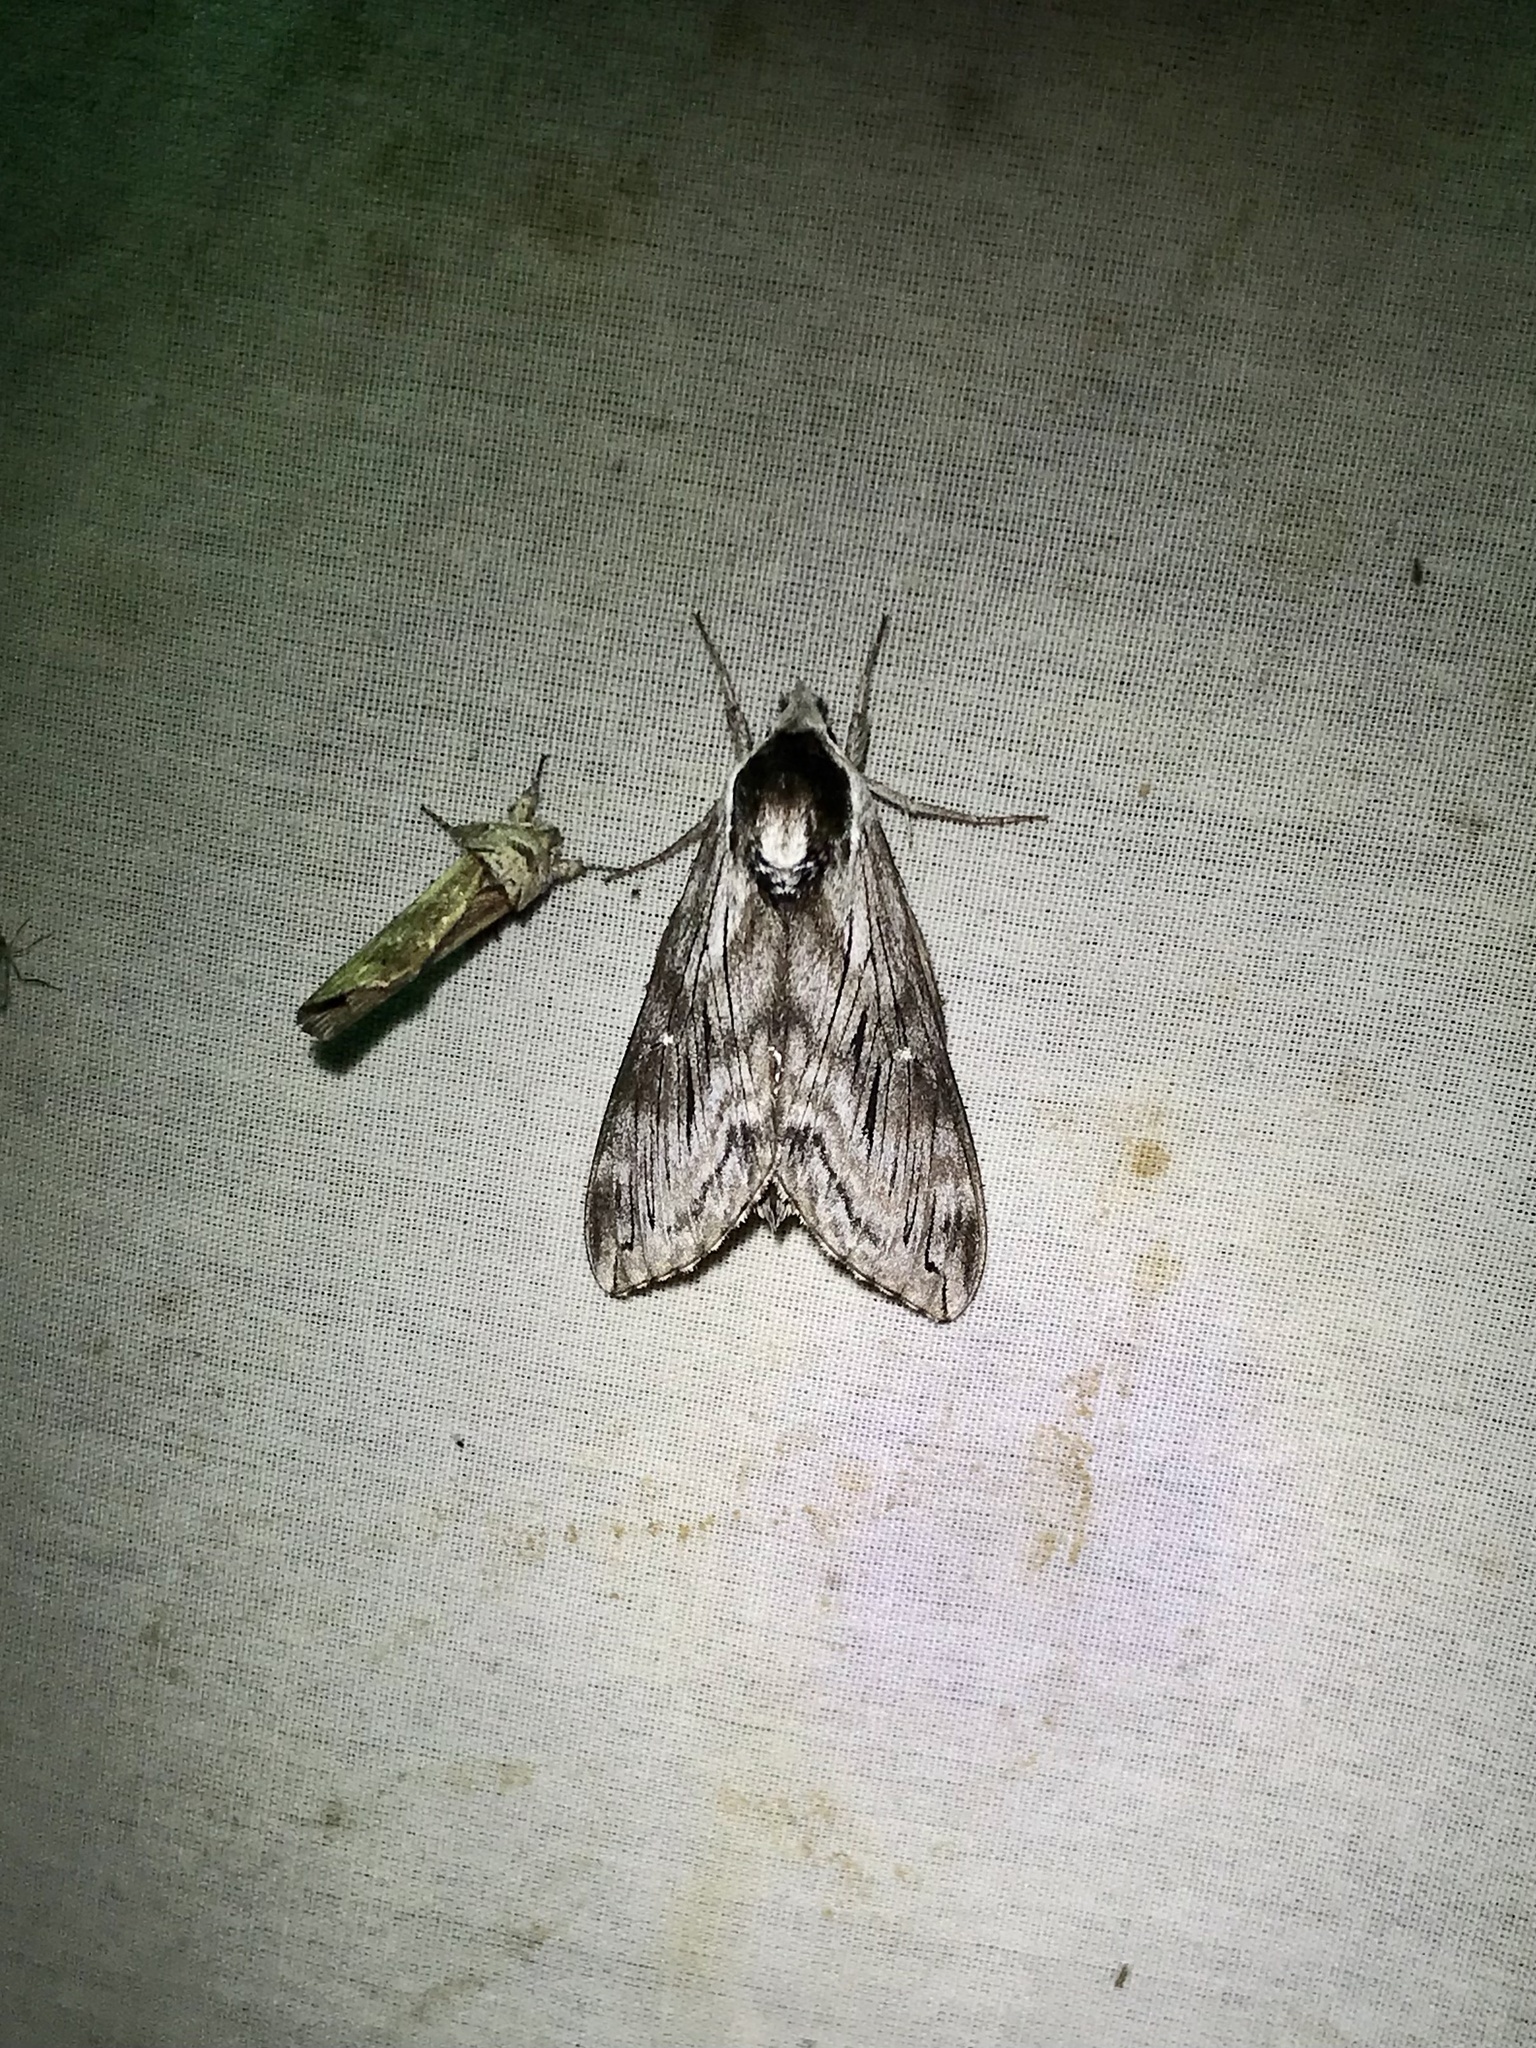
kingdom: Animalia
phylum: Arthropoda
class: Insecta
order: Lepidoptera
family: Sphingidae
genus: Sphinx
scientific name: Sphinx poecila
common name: Northern apple sphinx
